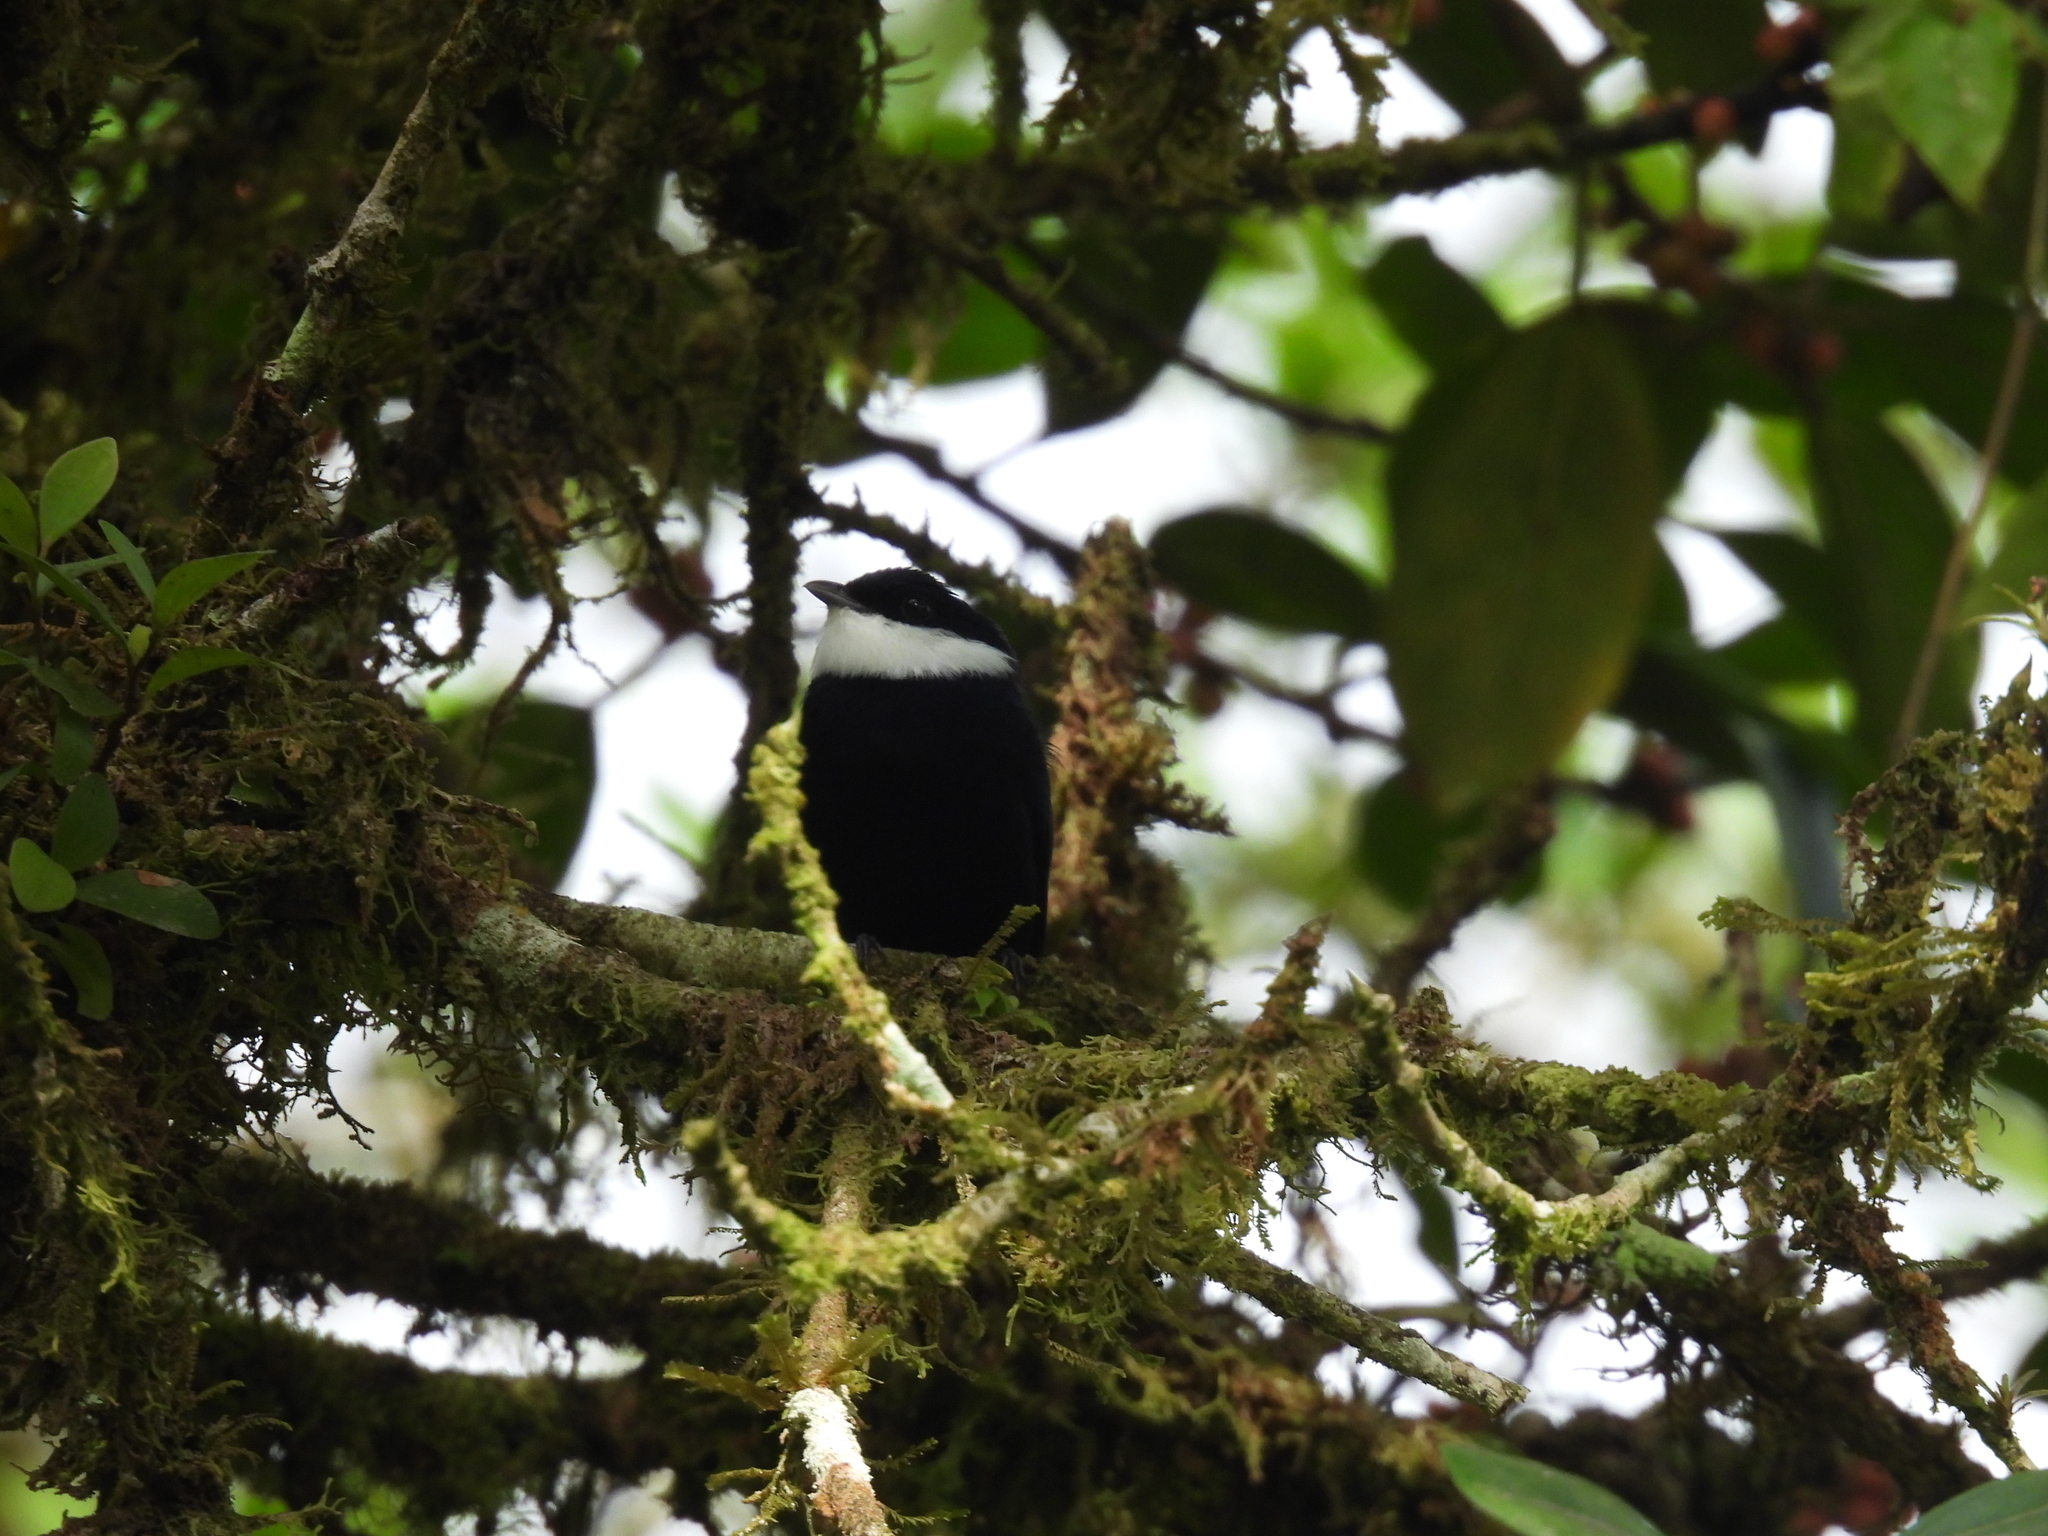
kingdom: Animalia
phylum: Chordata
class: Aves
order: Passeriformes
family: Pipridae
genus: Corapipo
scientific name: Corapipo altera
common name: White-ruffed manakin
